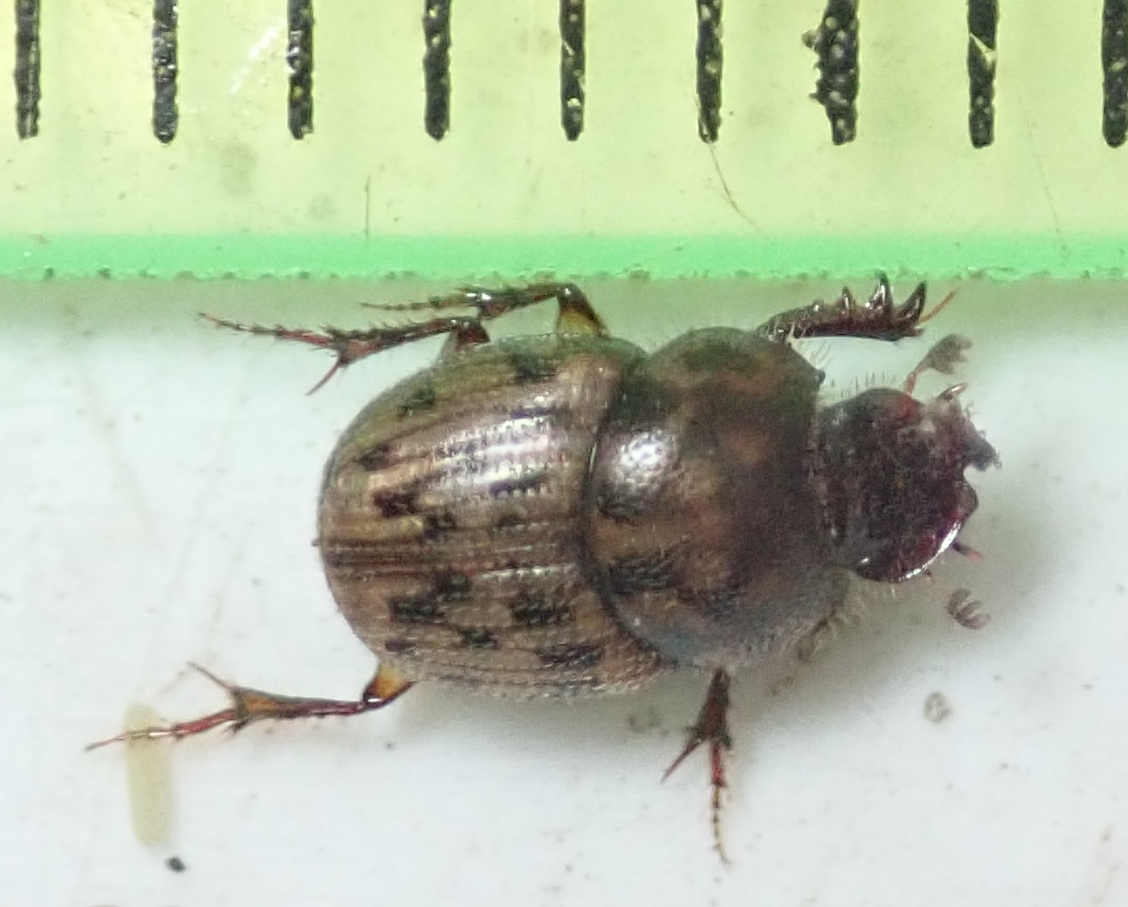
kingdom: Animalia
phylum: Arthropoda
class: Insecta
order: Coleoptera
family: Scarabaeidae
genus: Onthophagus
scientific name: Onthophagus variegatus
